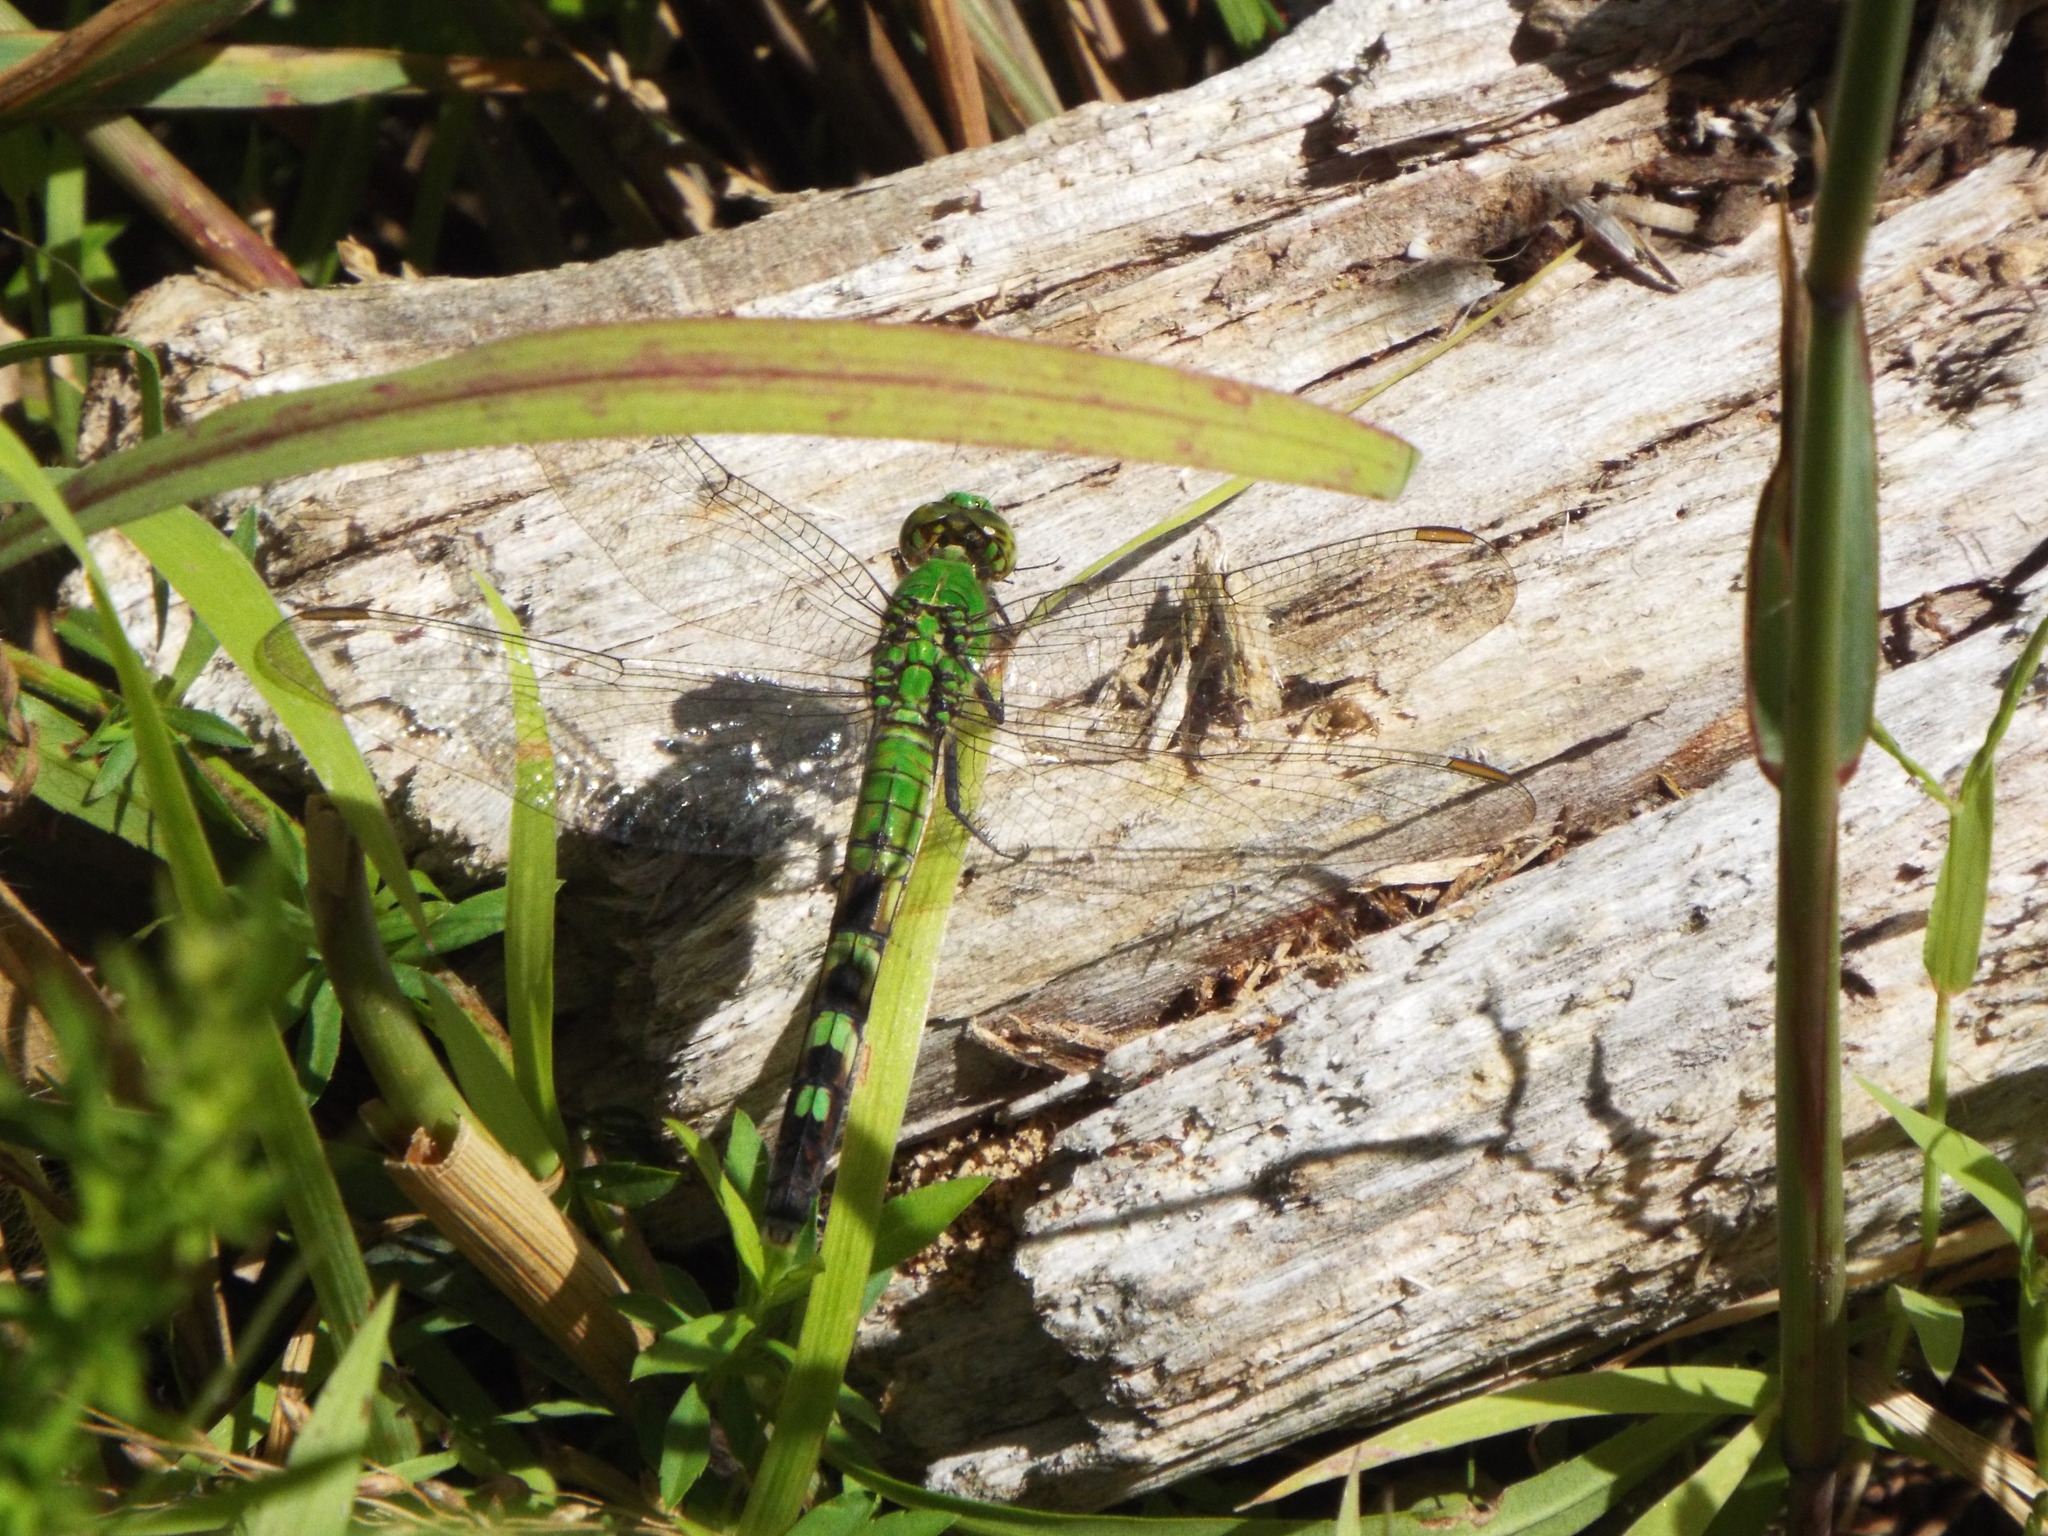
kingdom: Animalia
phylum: Arthropoda
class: Insecta
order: Odonata
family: Libellulidae
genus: Erythemis
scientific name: Erythemis simplicicollis
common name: Eastern pondhawk
